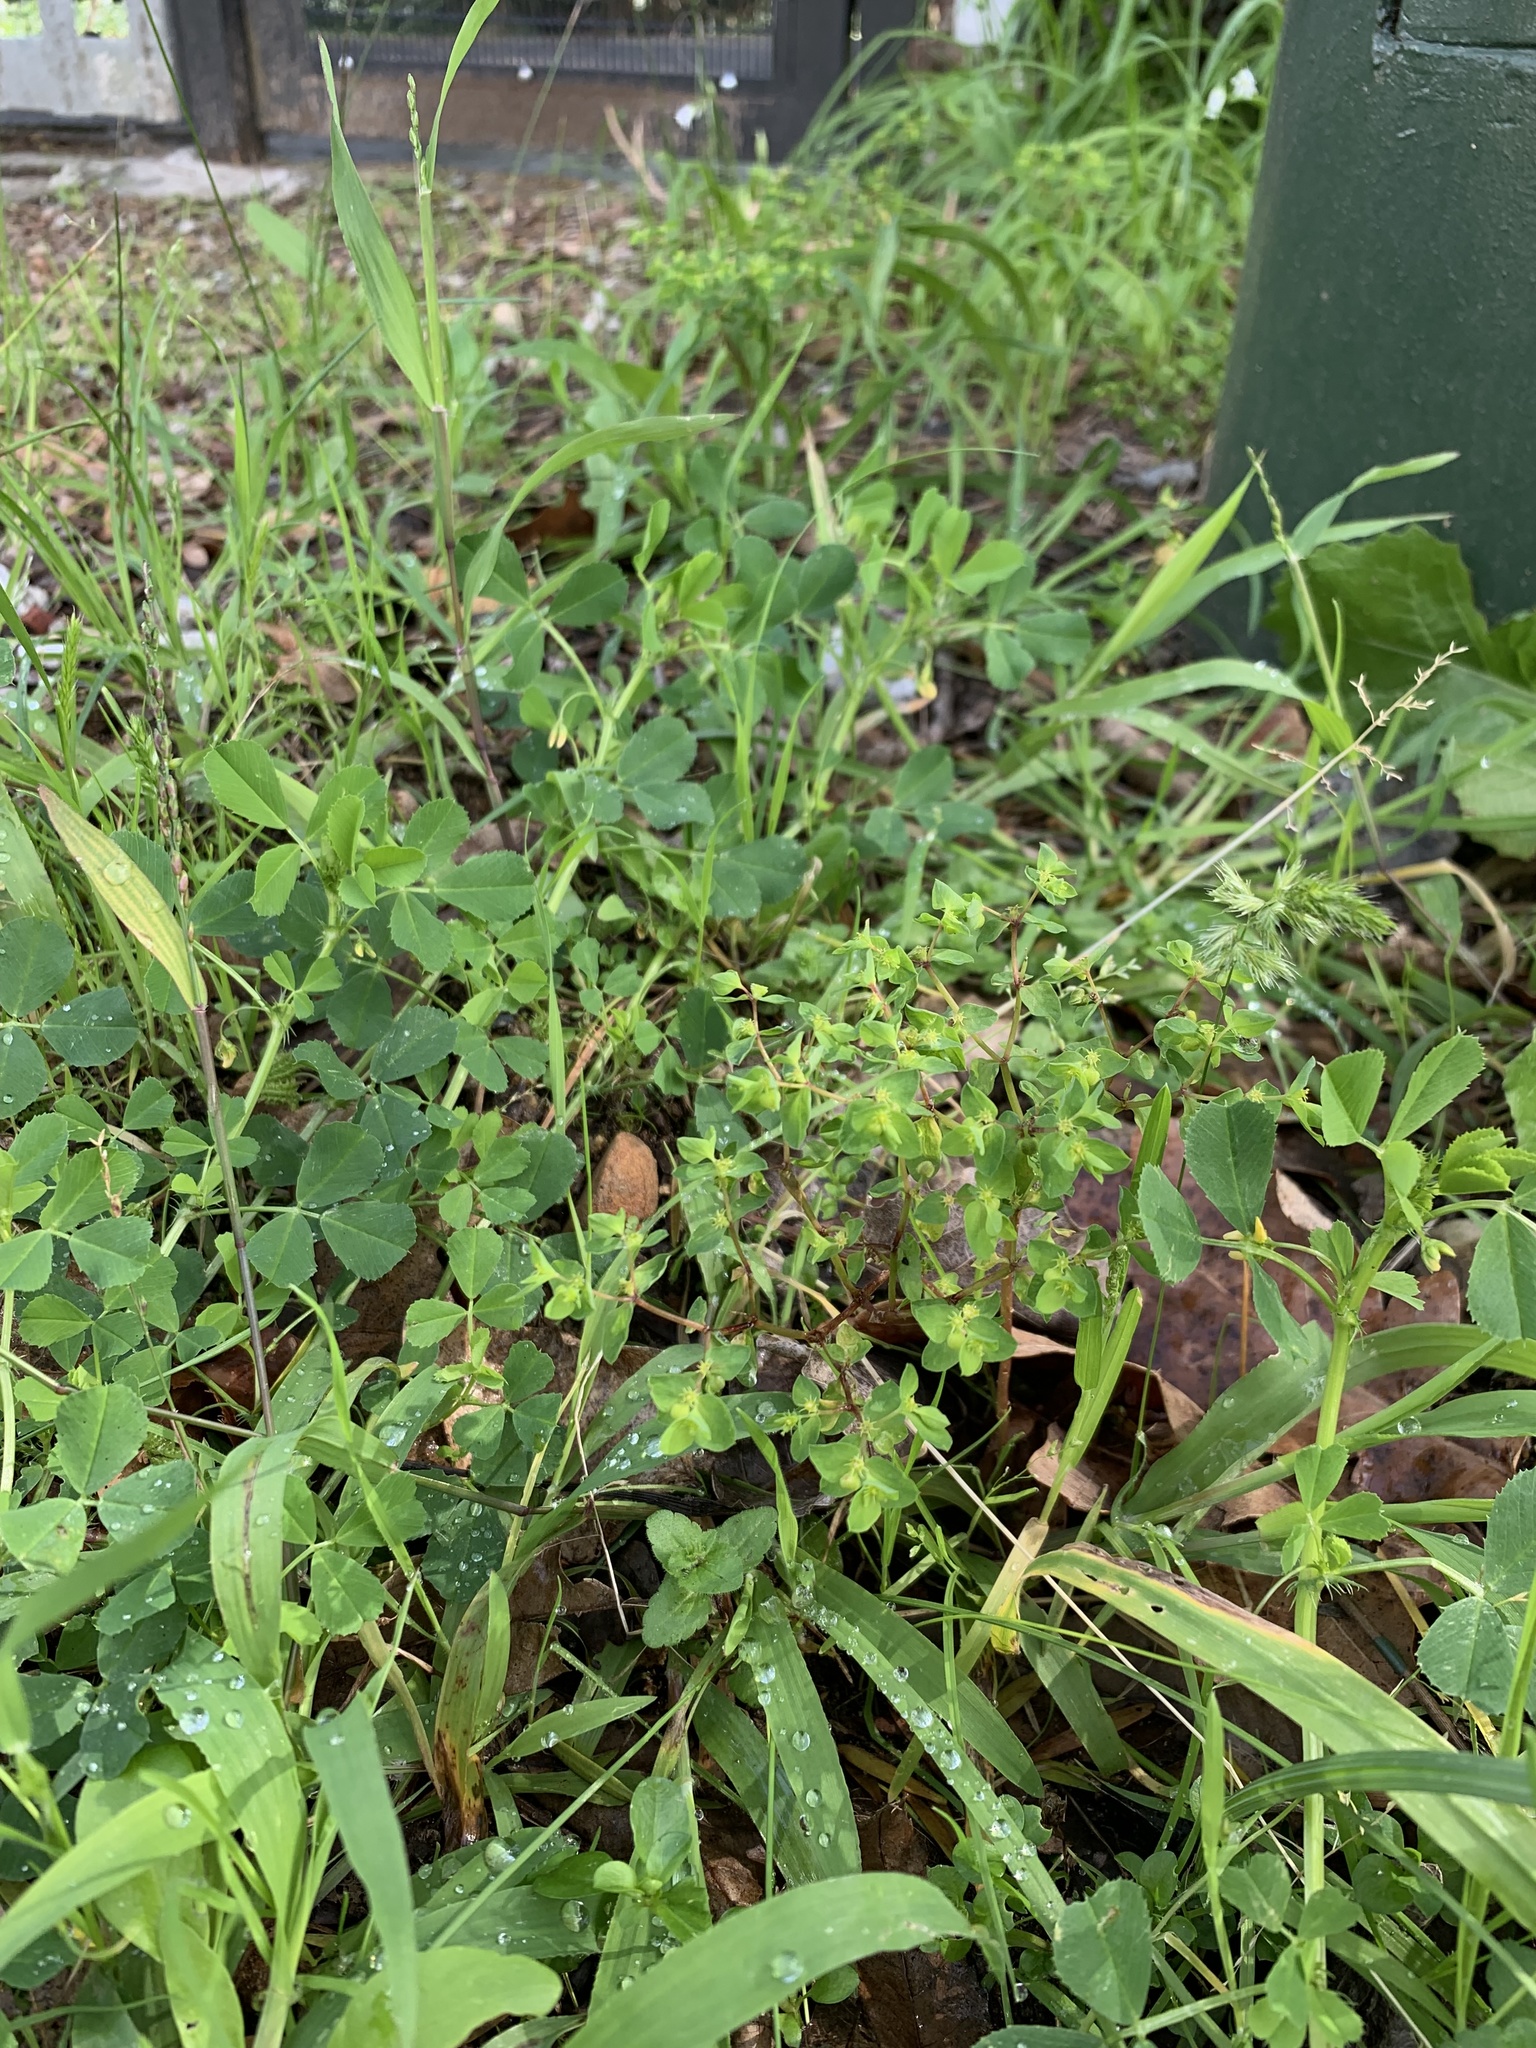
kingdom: Plantae
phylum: Tracheophyta
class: Magnoliopsida
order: Malpighiales
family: Euphorbiaceae
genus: Euphorbia
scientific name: Euphorbia peplus
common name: Petty spurge
